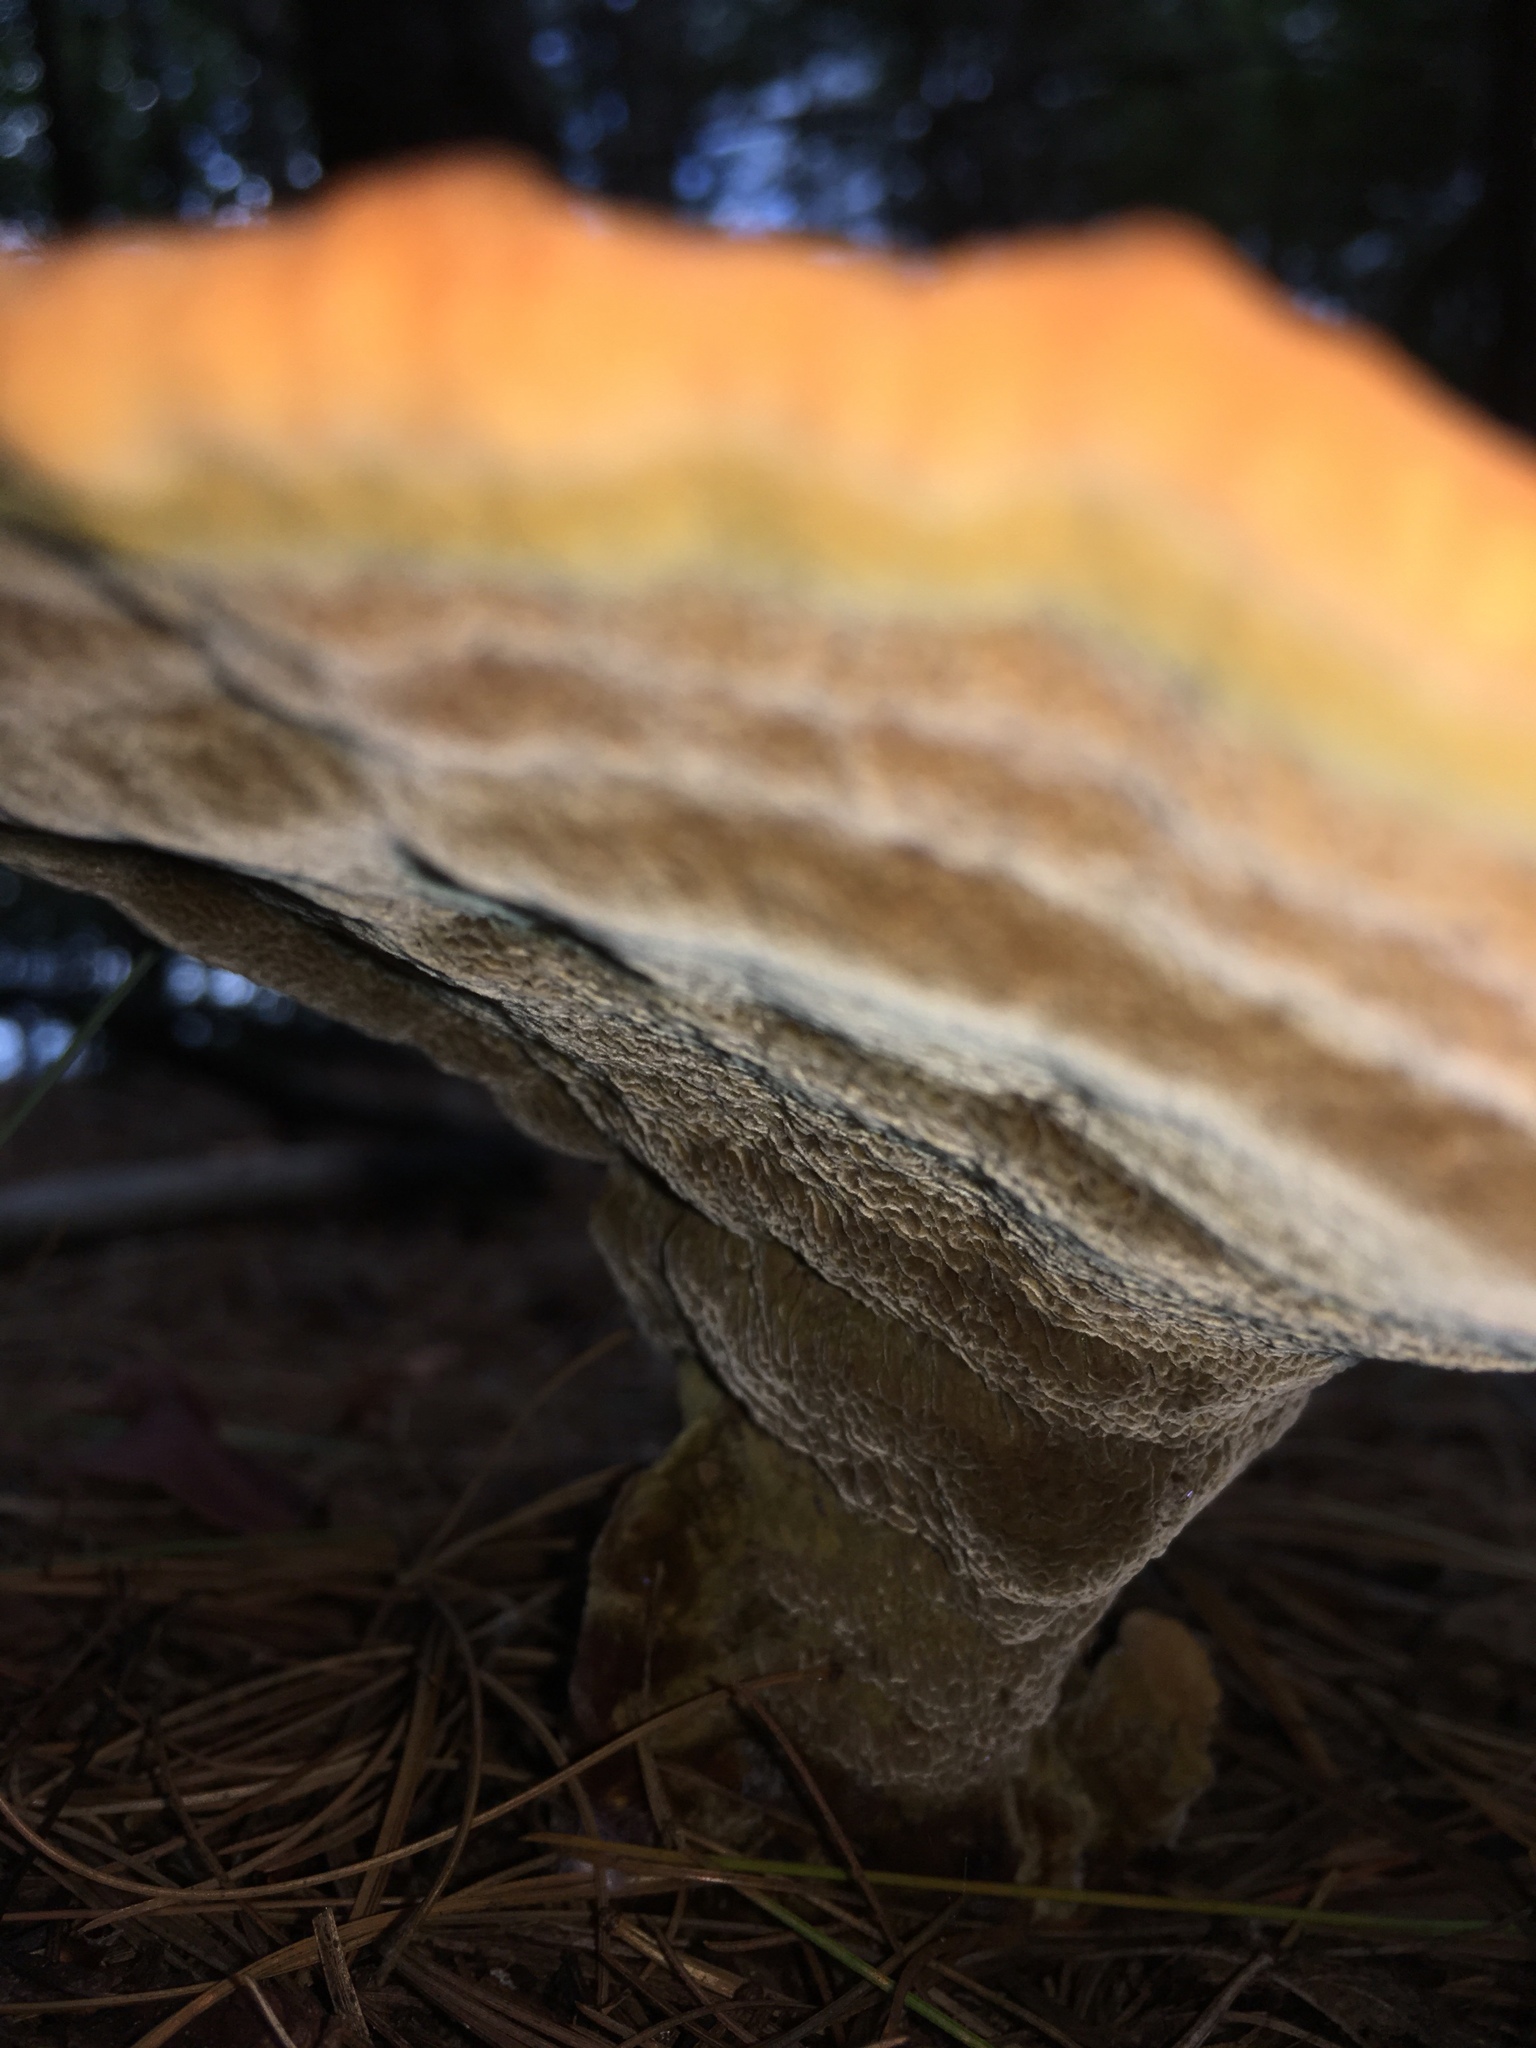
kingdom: Fungi
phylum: Basidiomycota
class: Agaricomycetes
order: Polyporales
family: Laetiporaceae
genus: Phaeolus
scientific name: Phaeolus schweinitzii
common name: Dyer's mazegill
